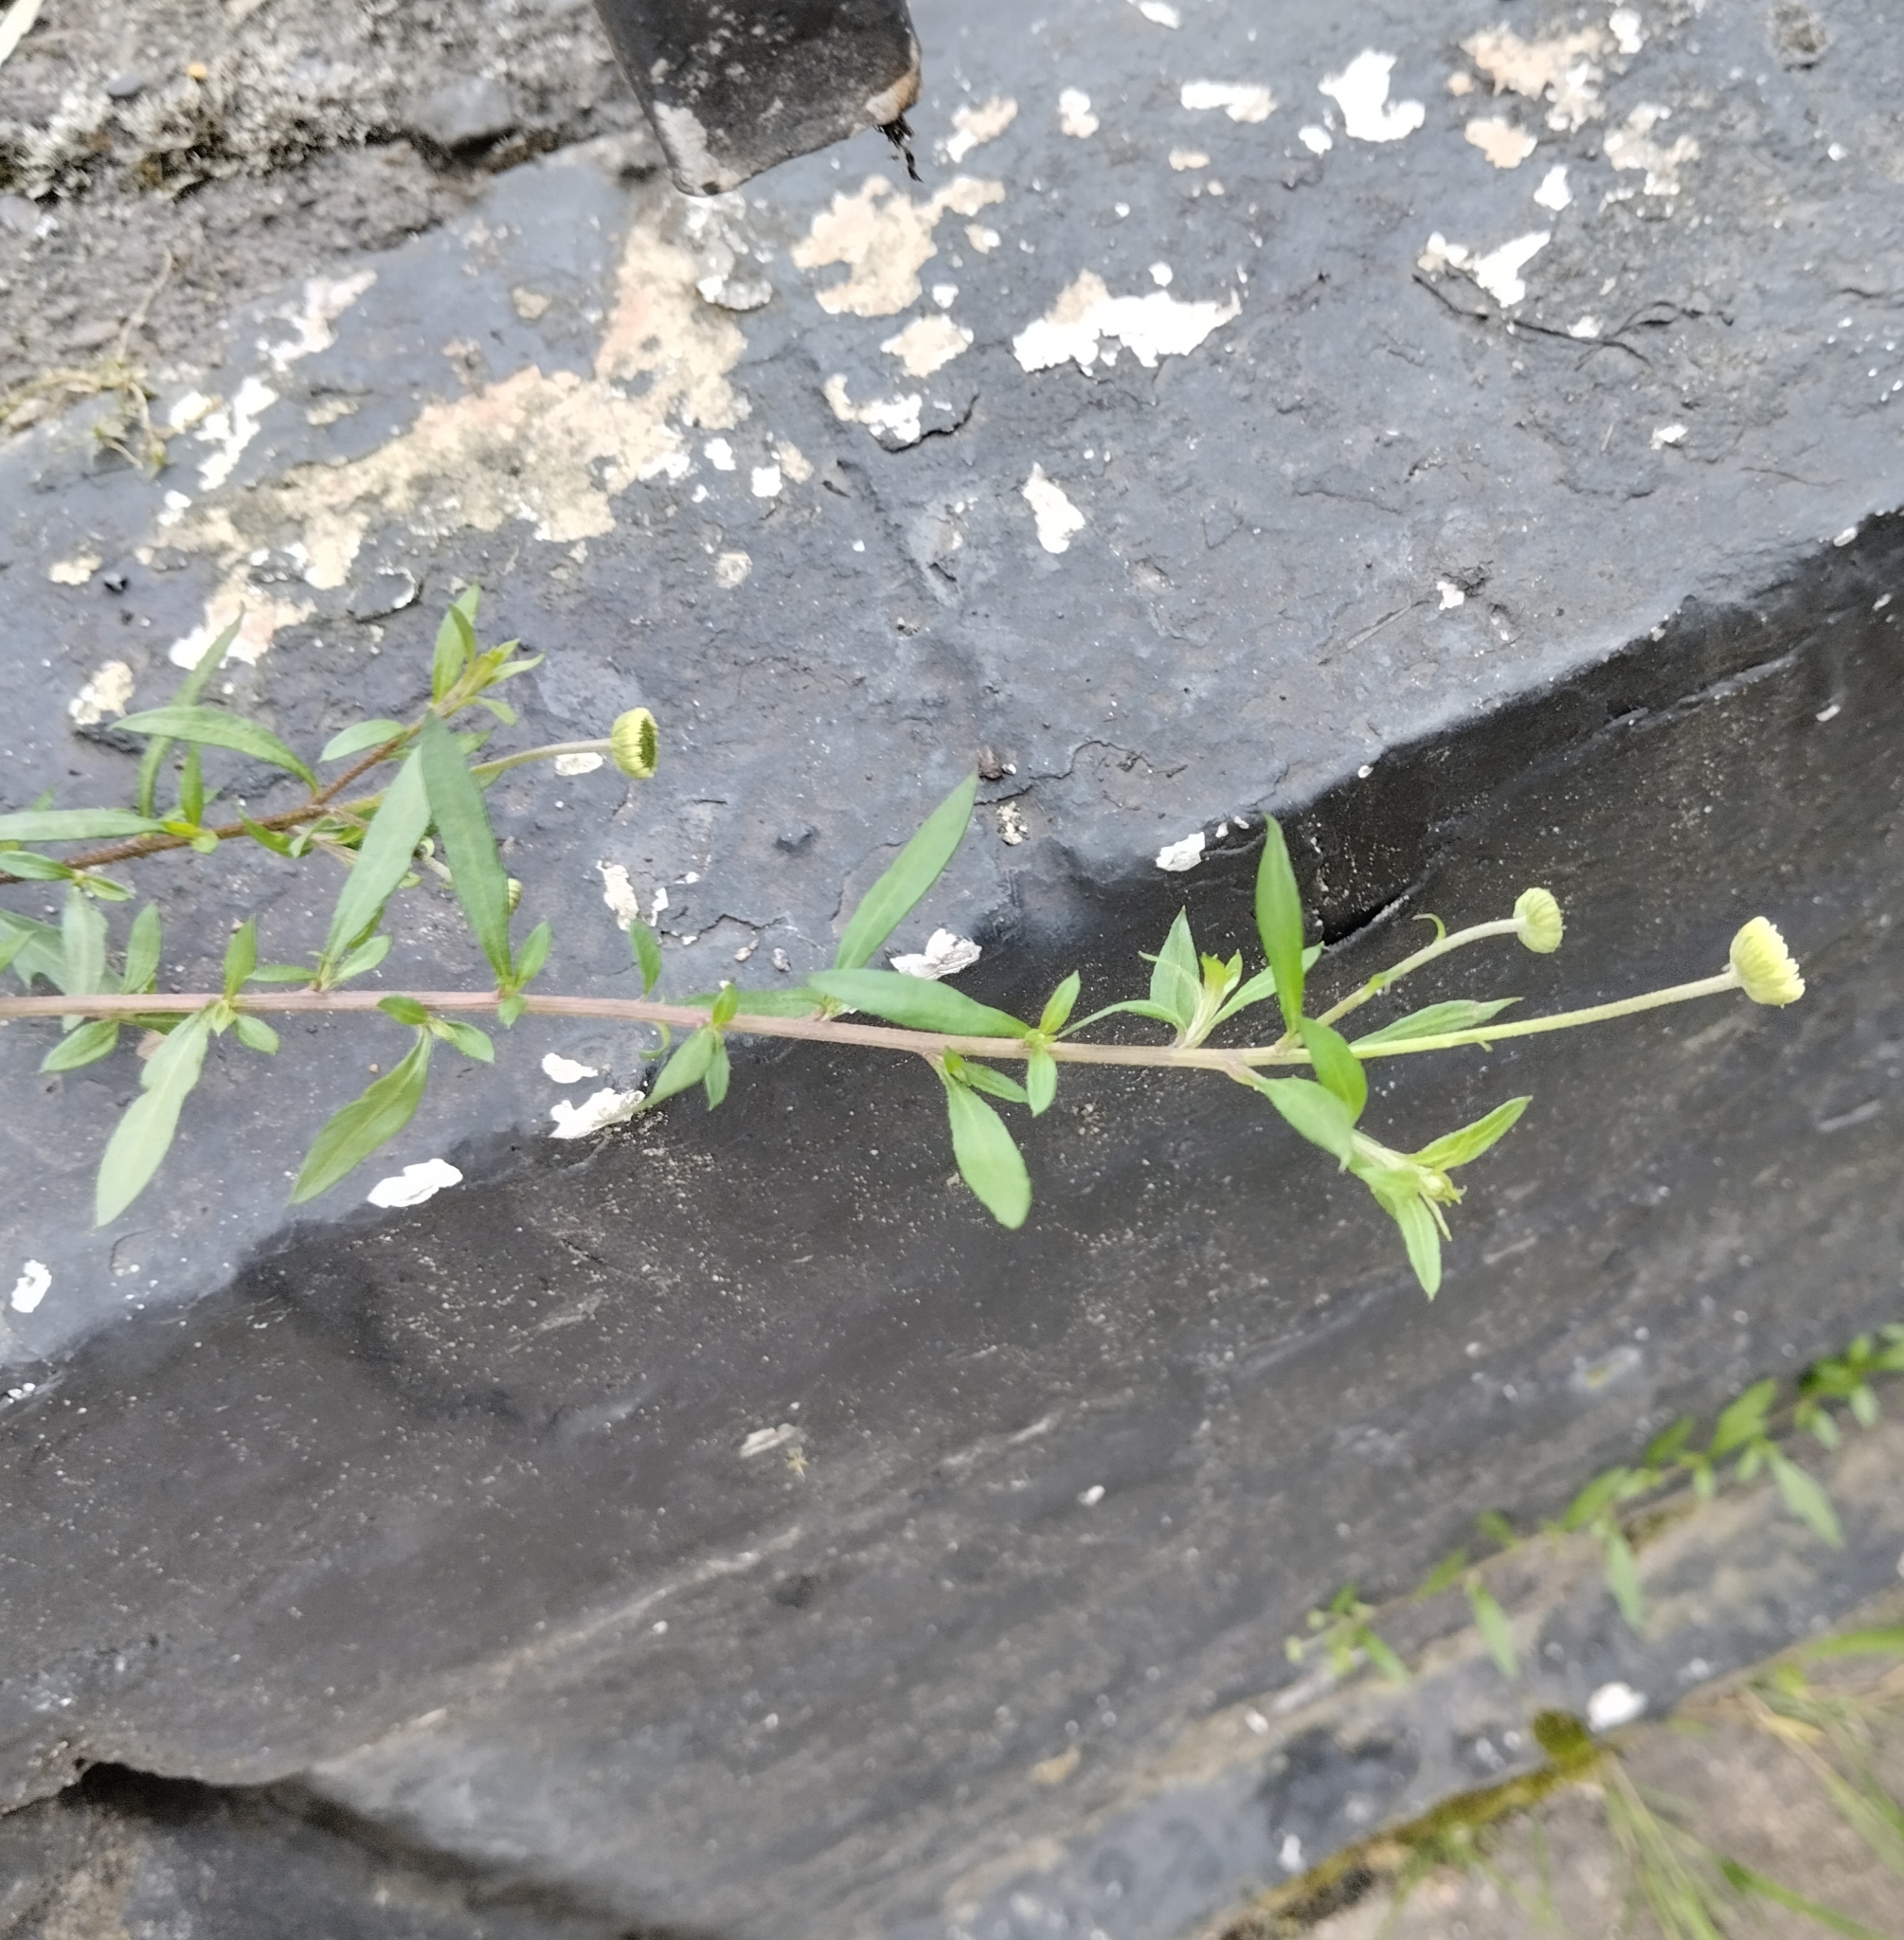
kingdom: Plantae
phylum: Tracheophyta
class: Magnoliopsida
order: Asterales
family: Asteraceae
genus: Erigeron
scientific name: Erigeron karvinskianus
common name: Mexican fleabane
